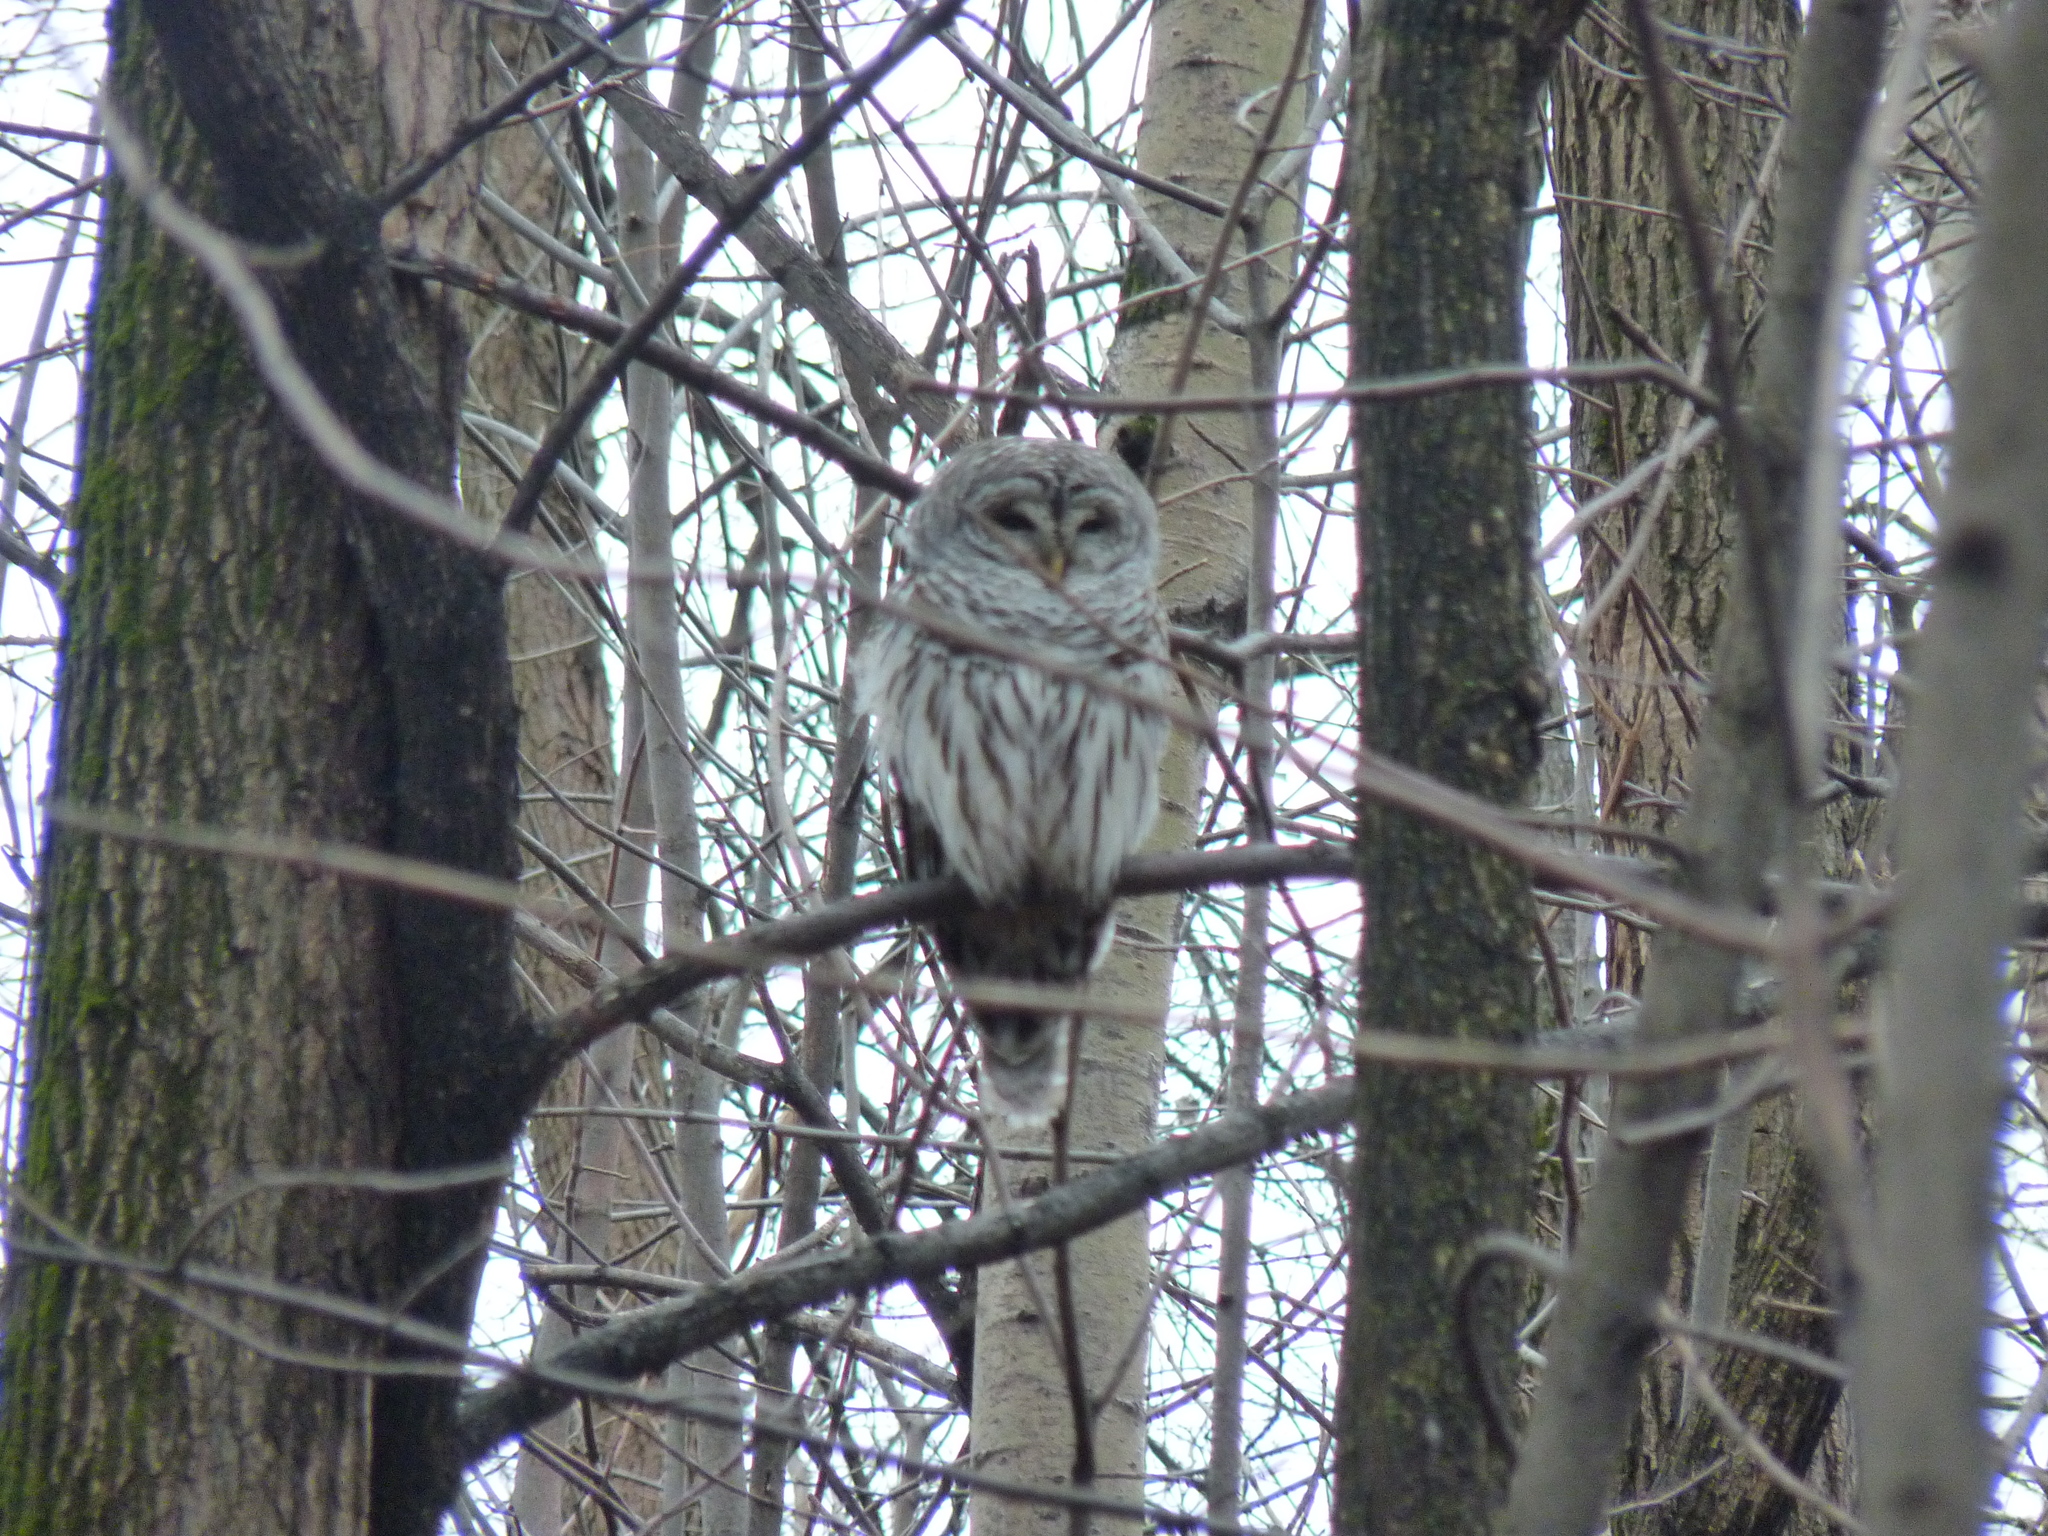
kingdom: Animalia
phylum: Chordata
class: Aves
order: Strigiformes
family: Strigidae
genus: Strix
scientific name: Strix varia
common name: Barred owl
